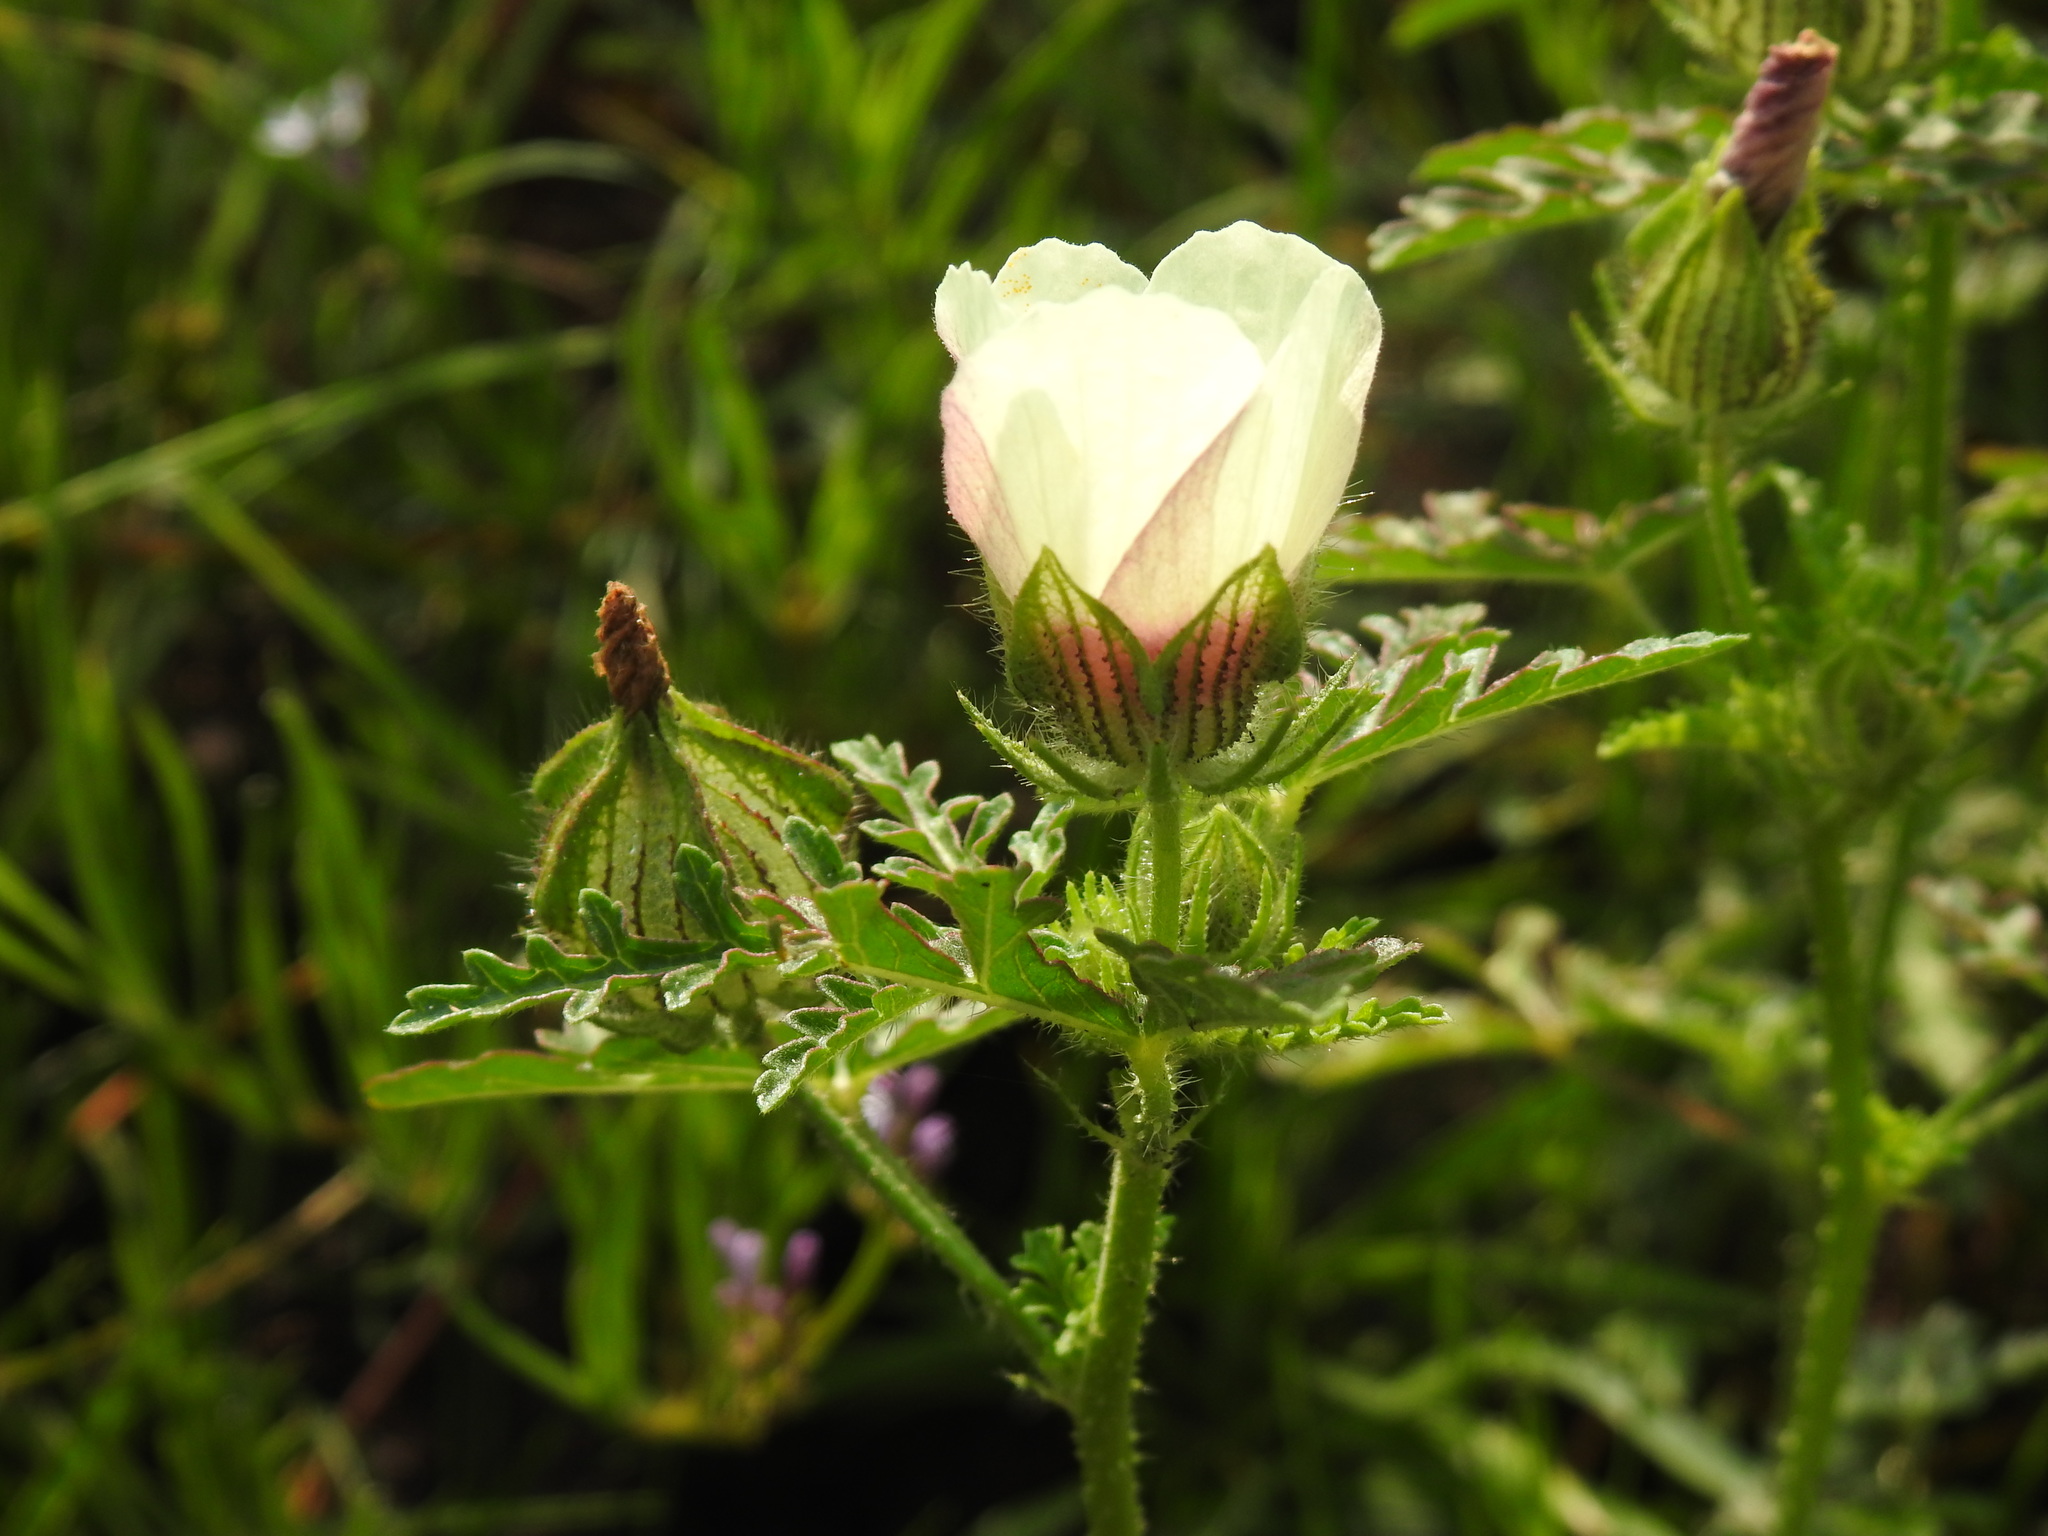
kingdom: Plantae
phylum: Tracheophyta
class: Magnoliopsida
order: Malvales
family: Malvaceae
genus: Hibiscus
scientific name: Hibiscus trionum
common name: Bladder ketmia
